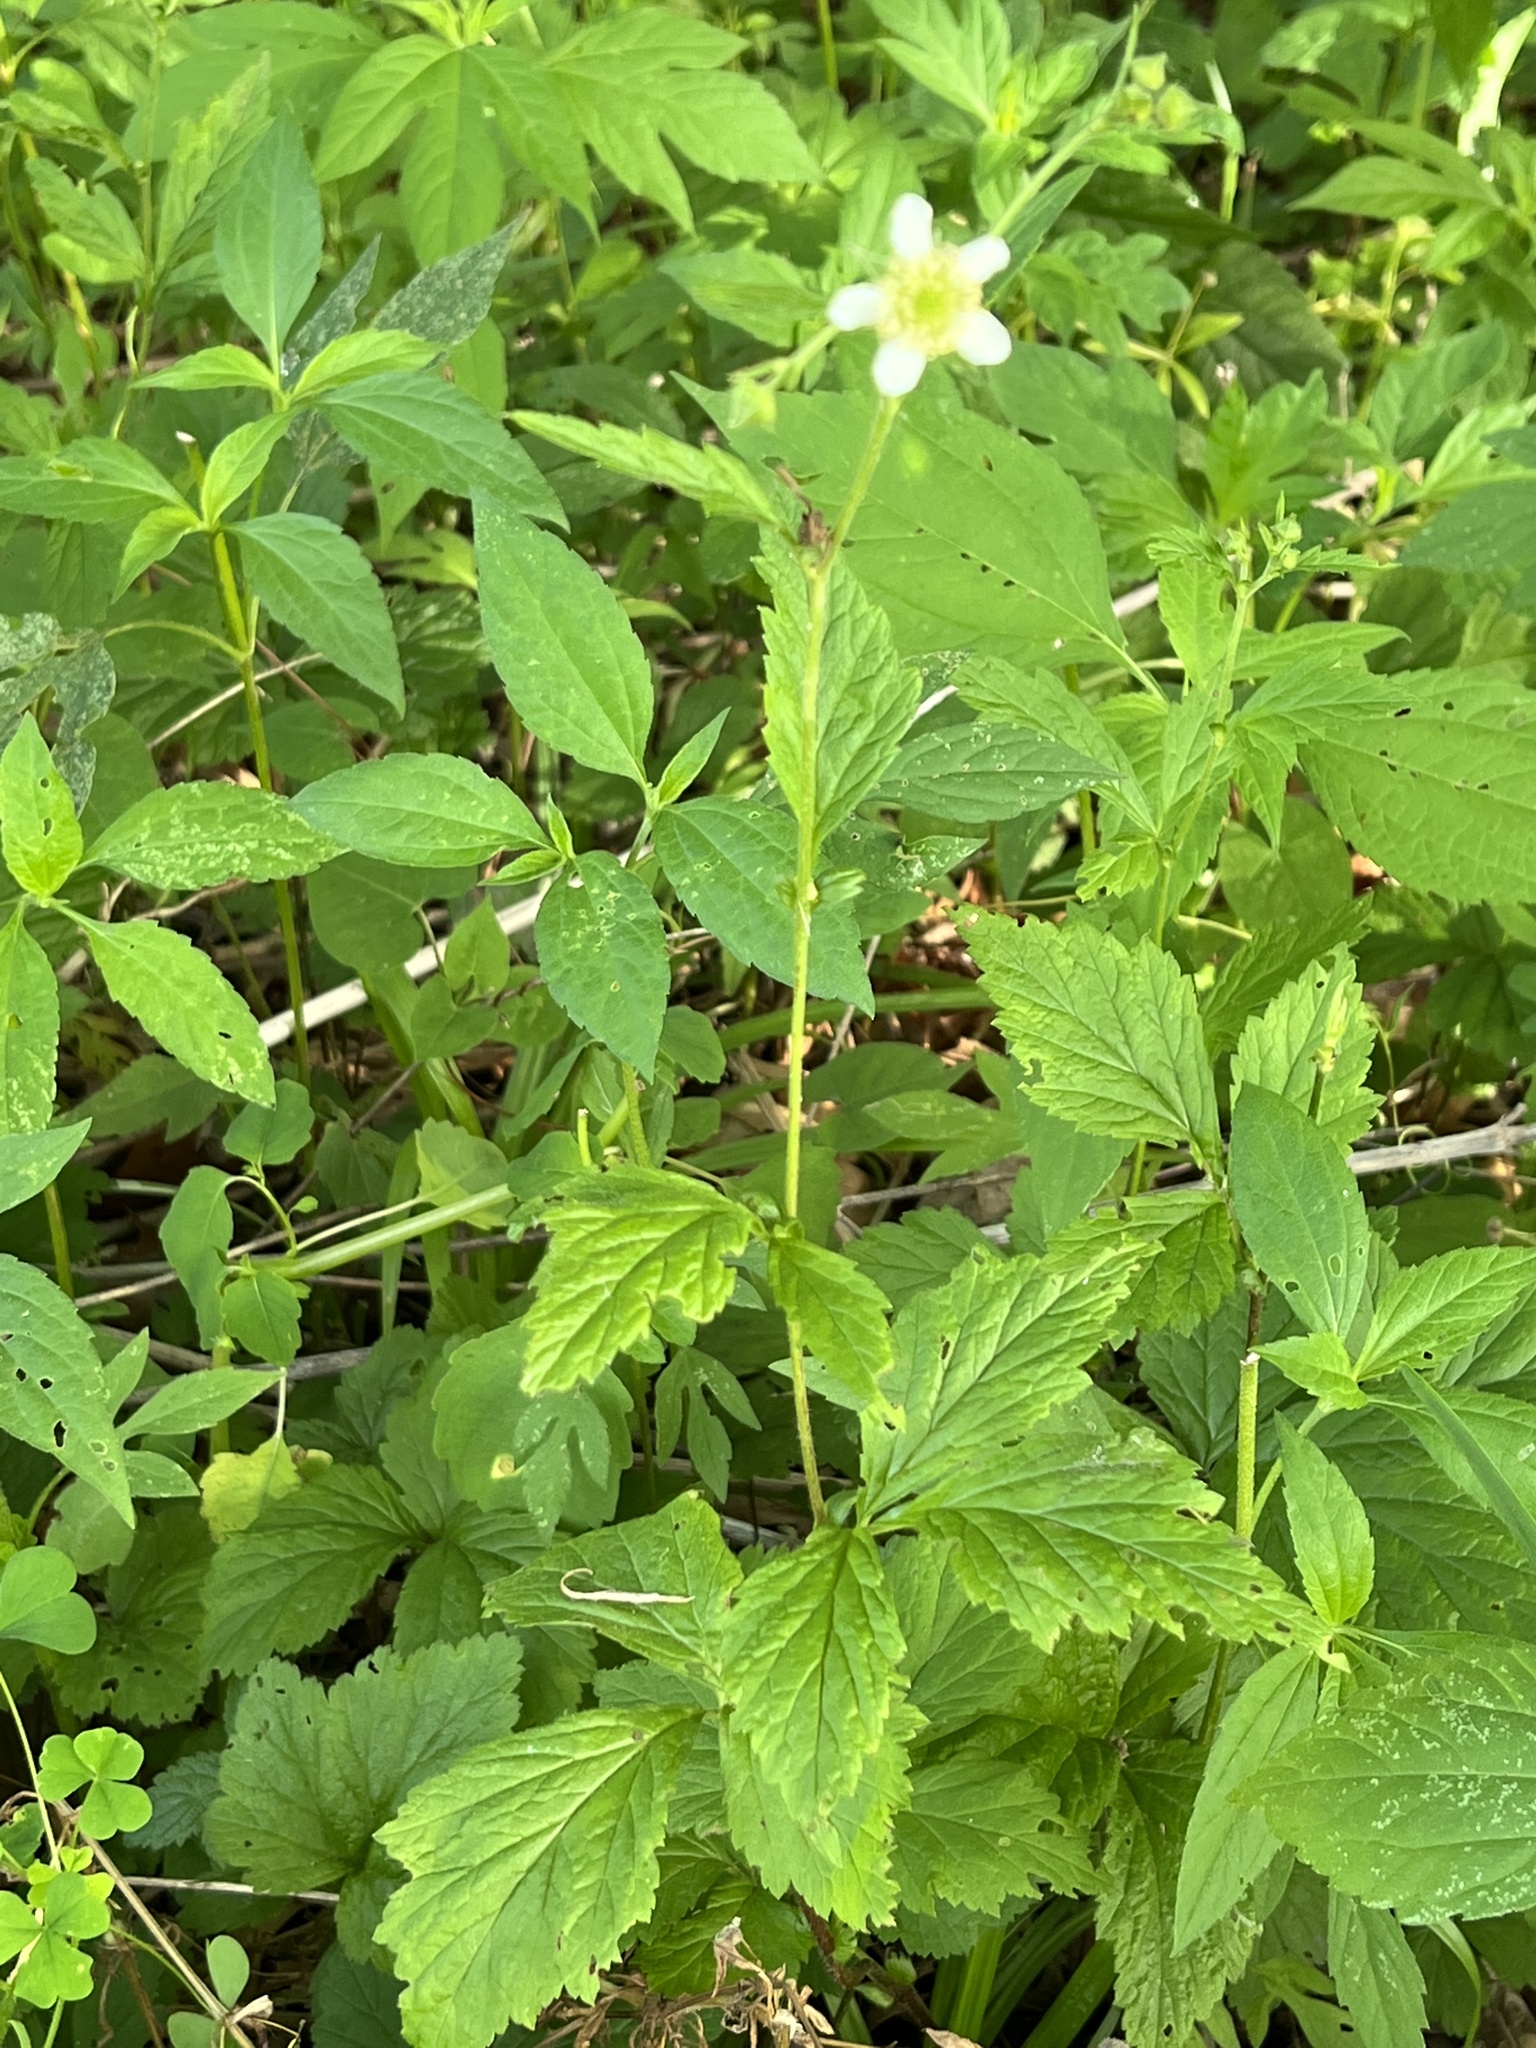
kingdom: Plantae
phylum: Tracheophyta
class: Magnoliopsida
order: Rosales
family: Rosaceae
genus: Geum
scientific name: Geum canadense
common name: White avens
